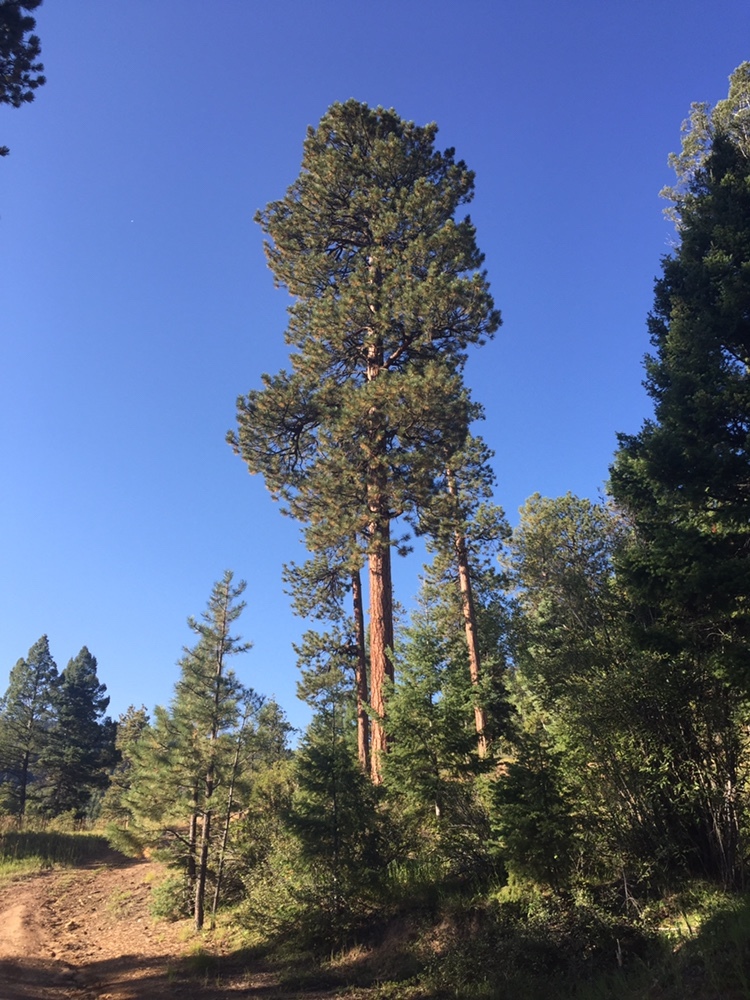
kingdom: Plantae
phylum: Tracheophyta
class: Pinopsida
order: Pinales
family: Pinaceae
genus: Pinus
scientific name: Pinus ponderosa
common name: Western yellow-pine
